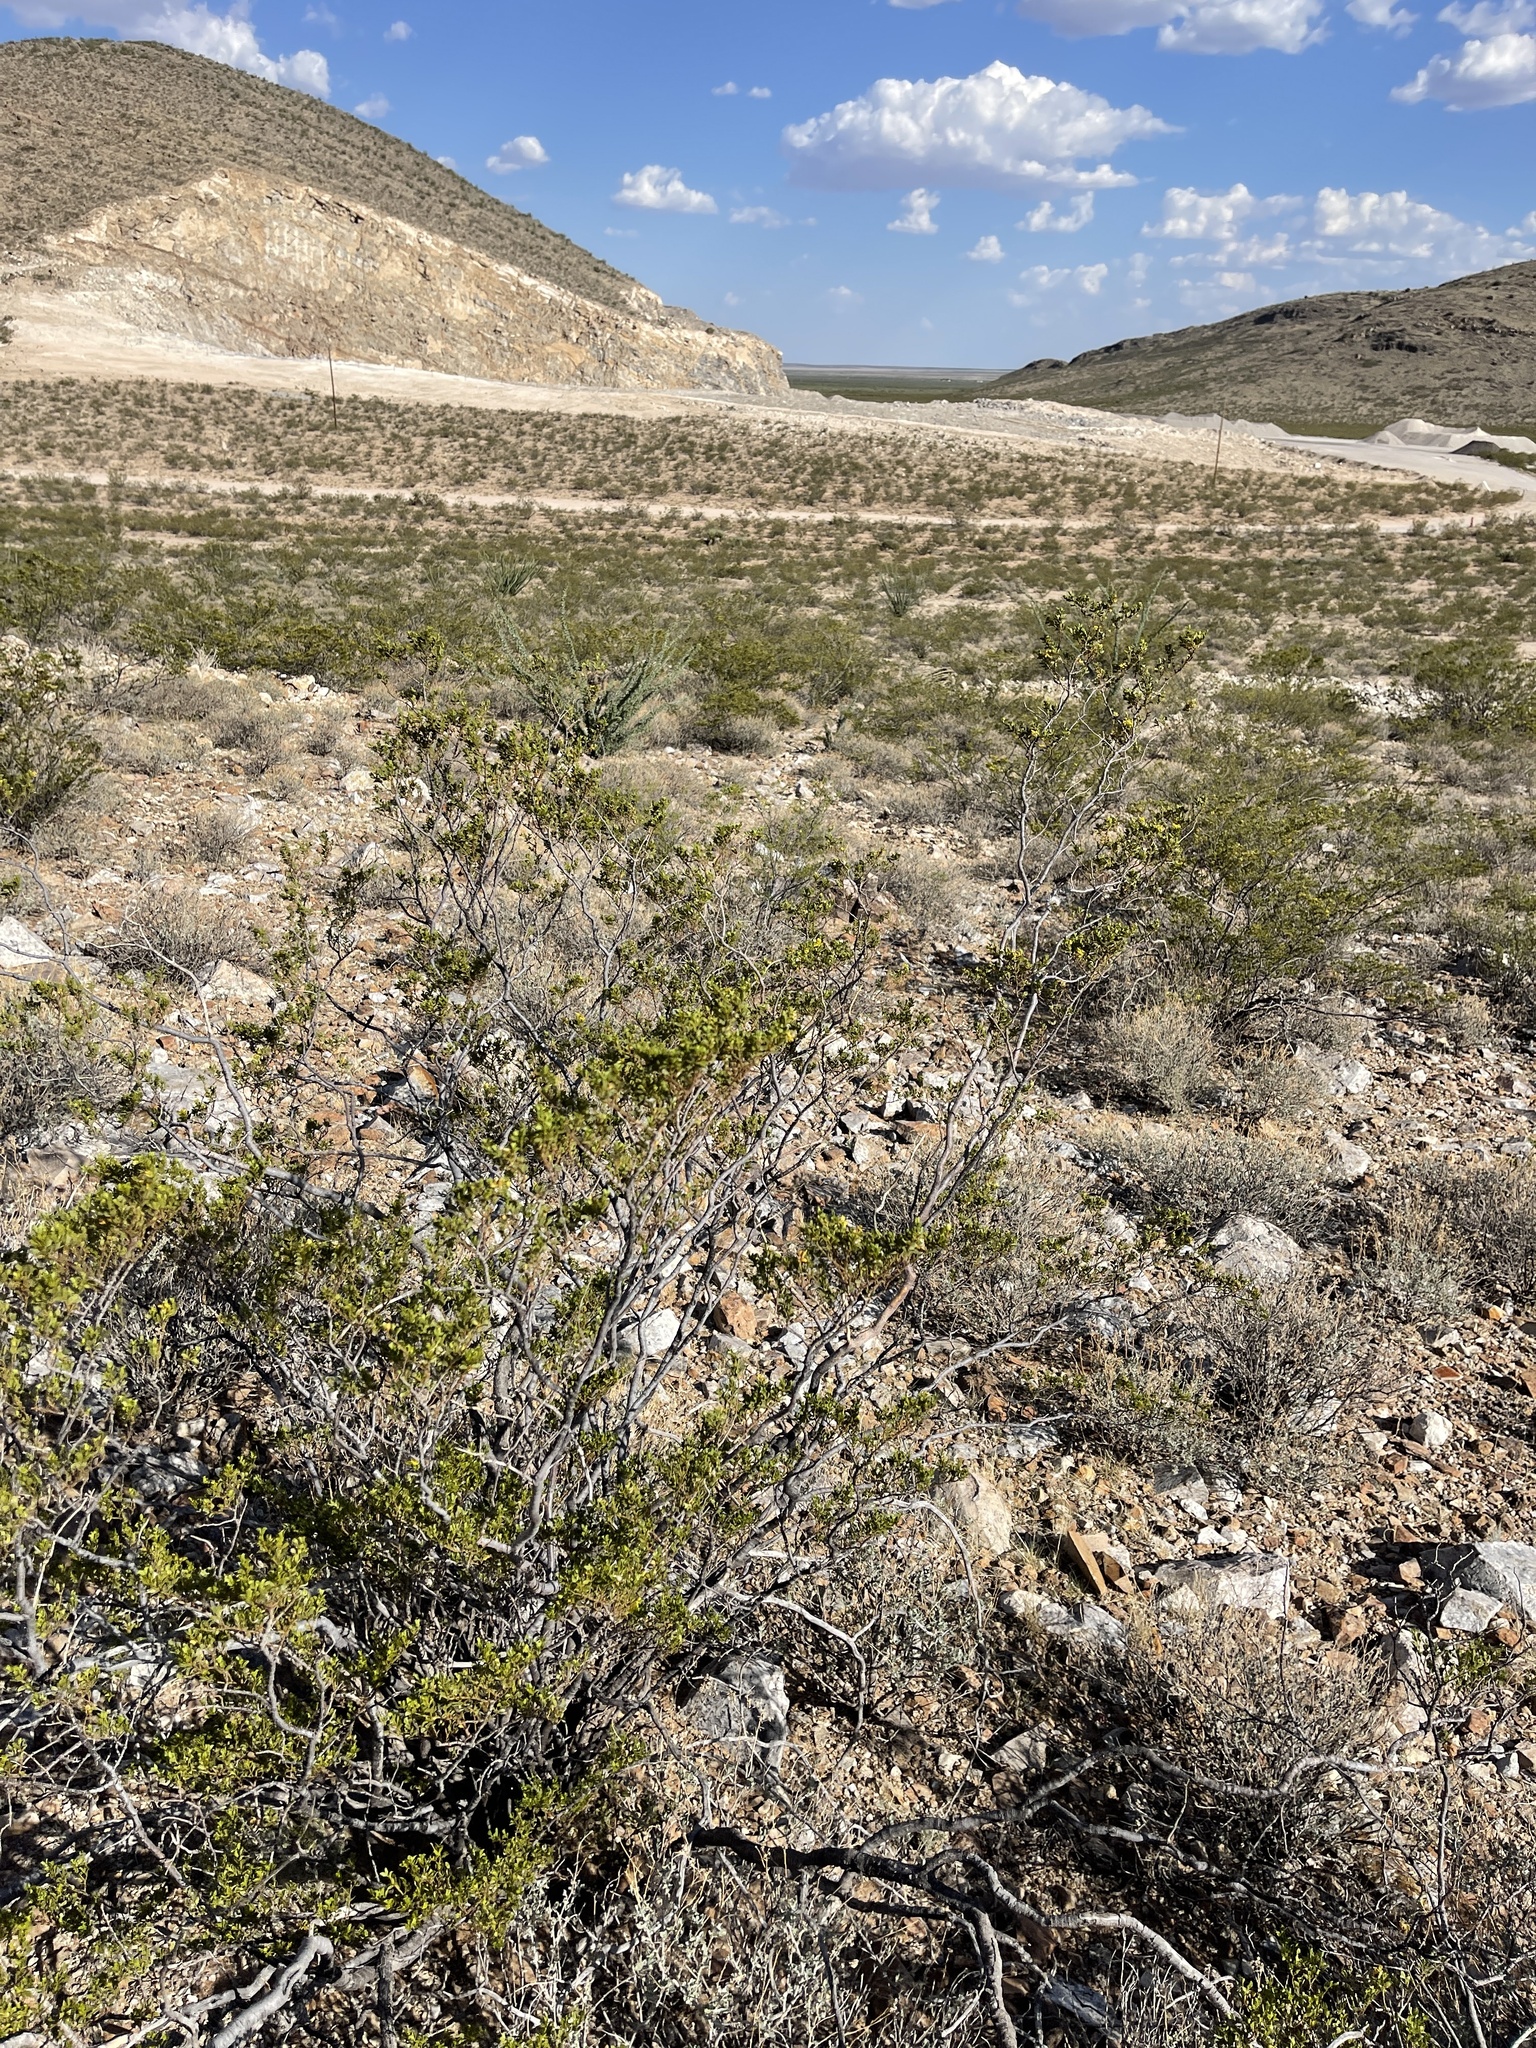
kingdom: Plantae
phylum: Tracheophyta
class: Magnoliopsida
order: Zygophyllales
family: Zygophyllaceae
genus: Larrea
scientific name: Larrea tridentata
